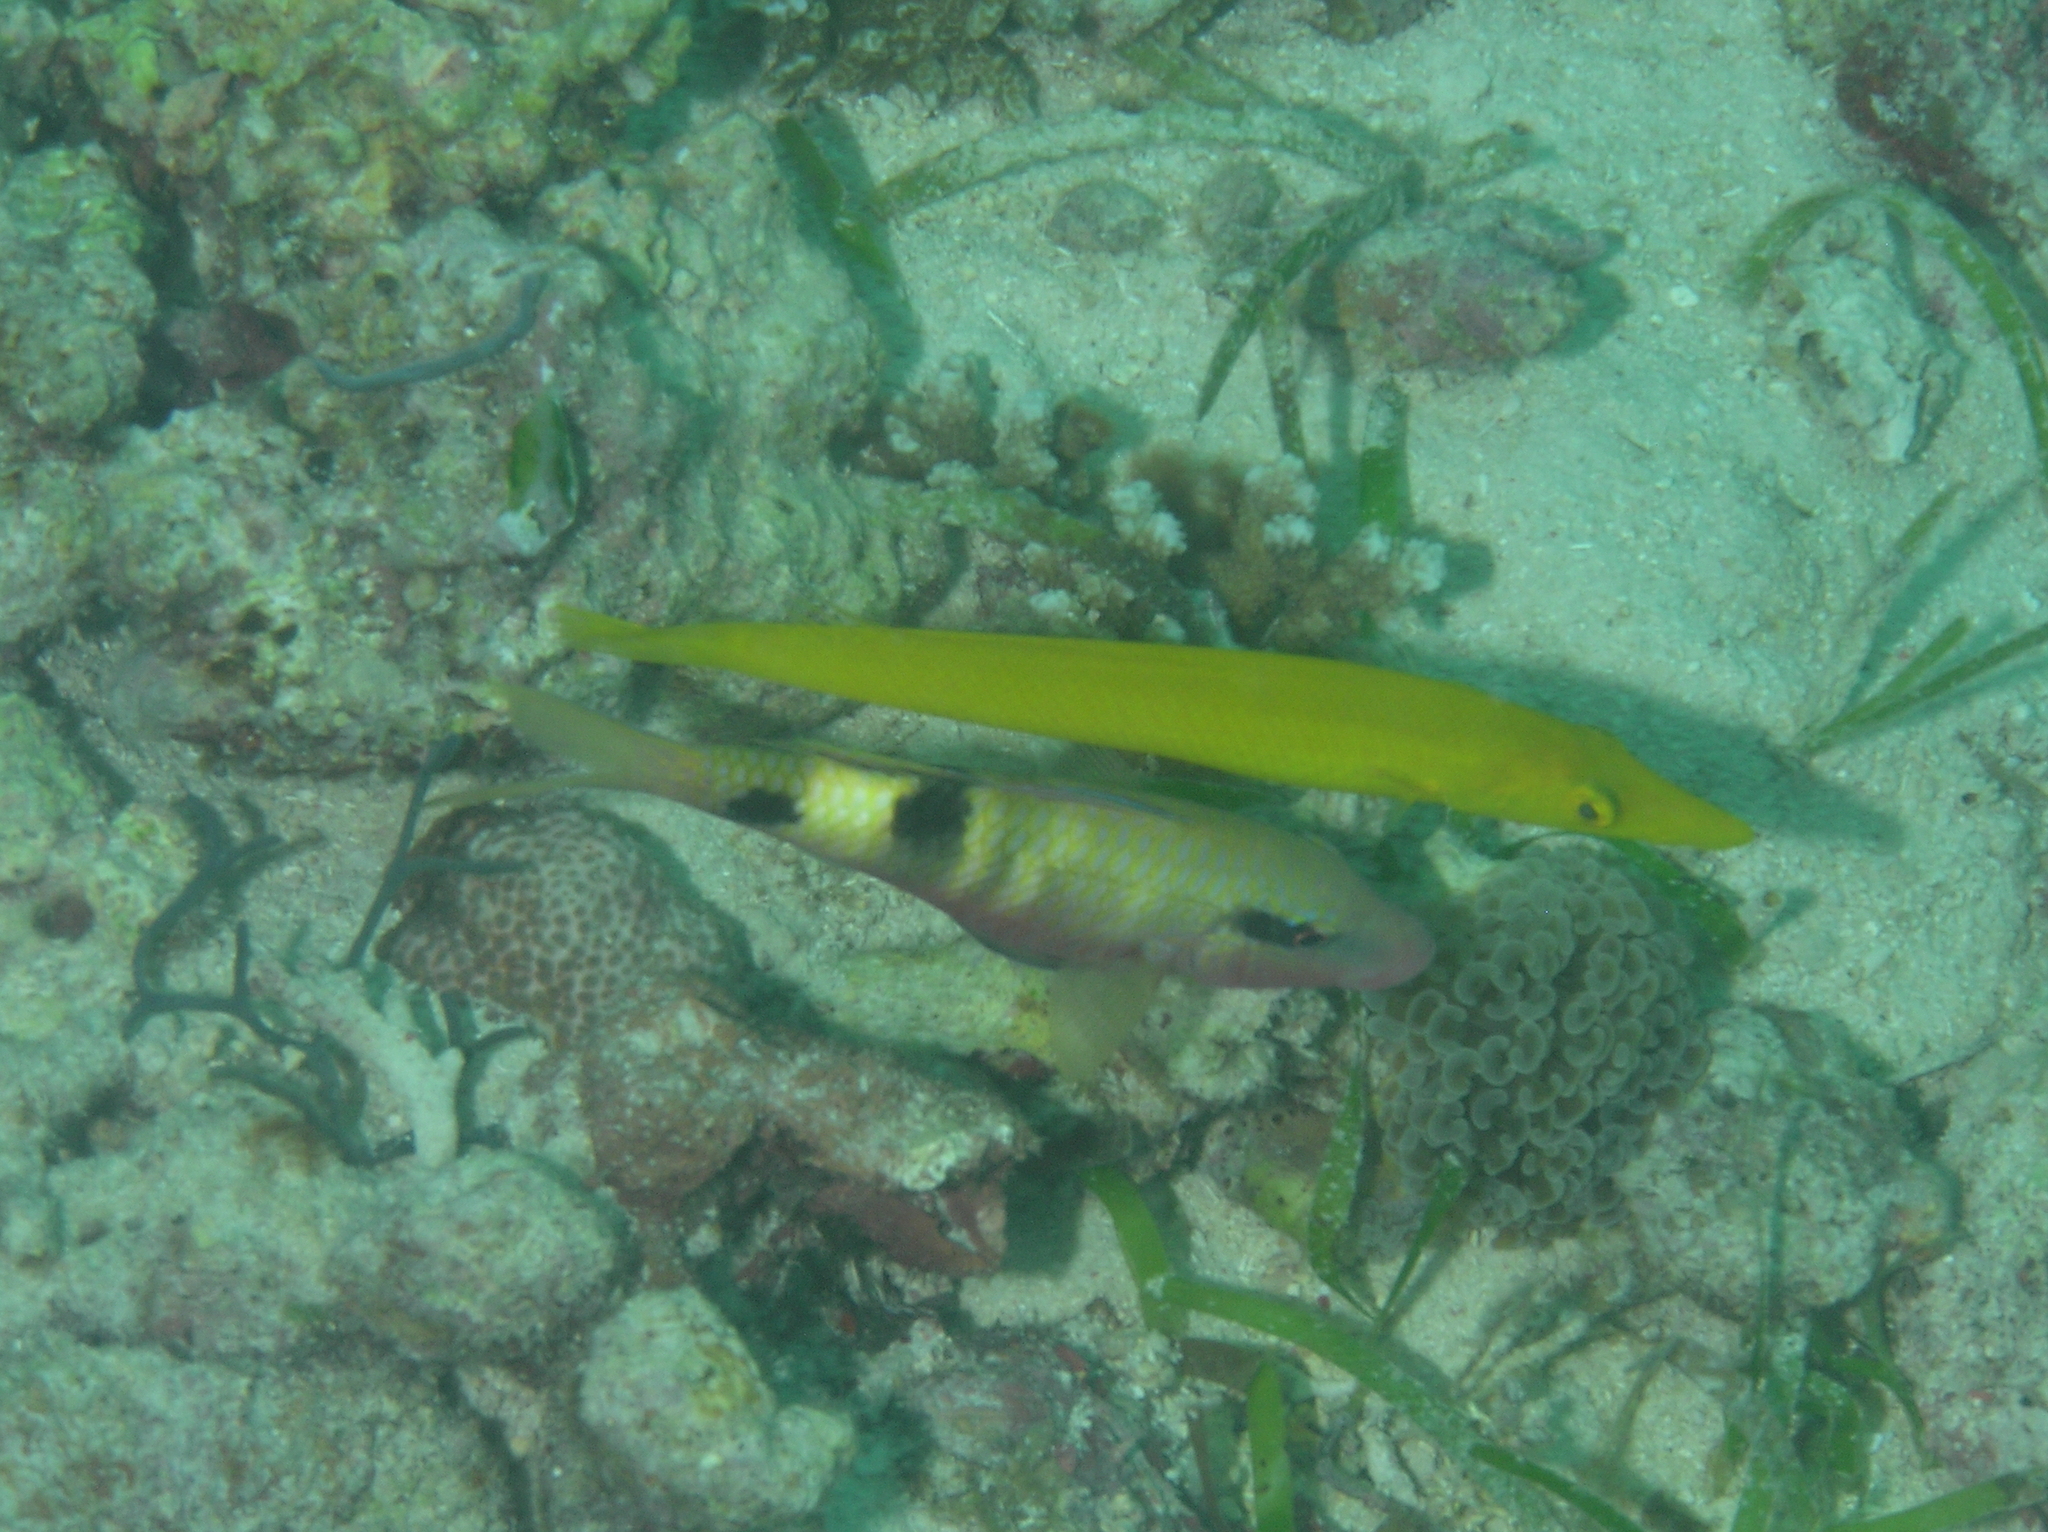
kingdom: Animalia
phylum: Chordata
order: Perciformes
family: Mullidae
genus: Parupeneus
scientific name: Parupeneus multifasciatus
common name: Manybar goatfish
